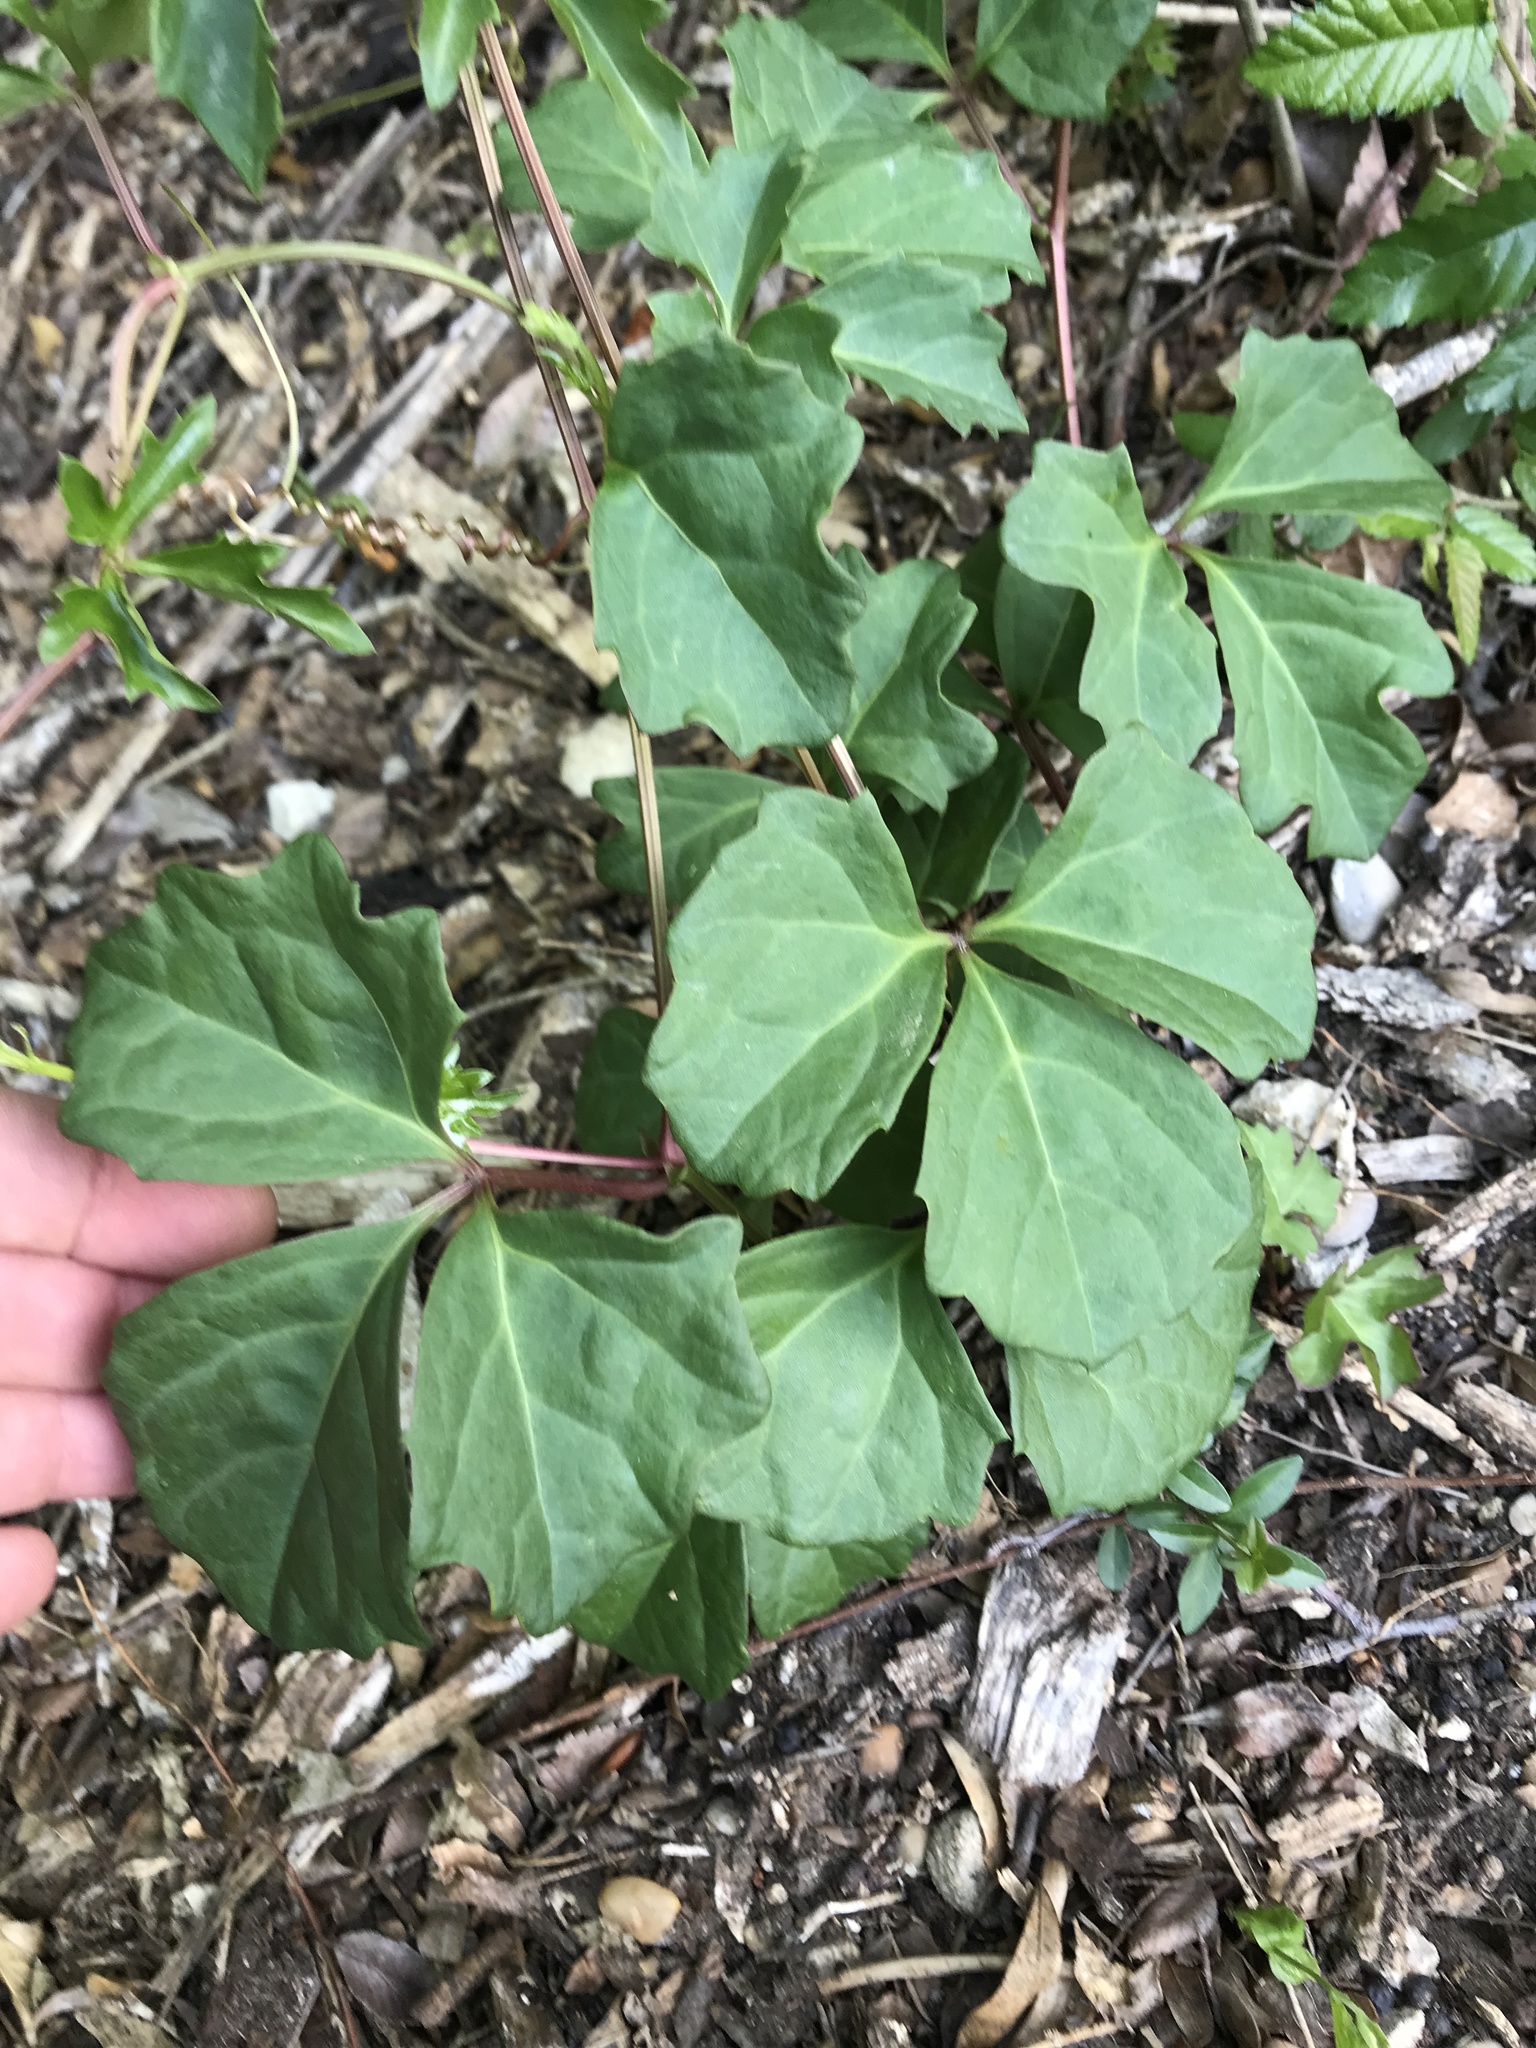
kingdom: Plantae
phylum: Tracheophyta
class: Magnoliopsida
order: Vitales
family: Vitaceae
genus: Cissus
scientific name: Cissus trifoliata
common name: Vine-sorrel
